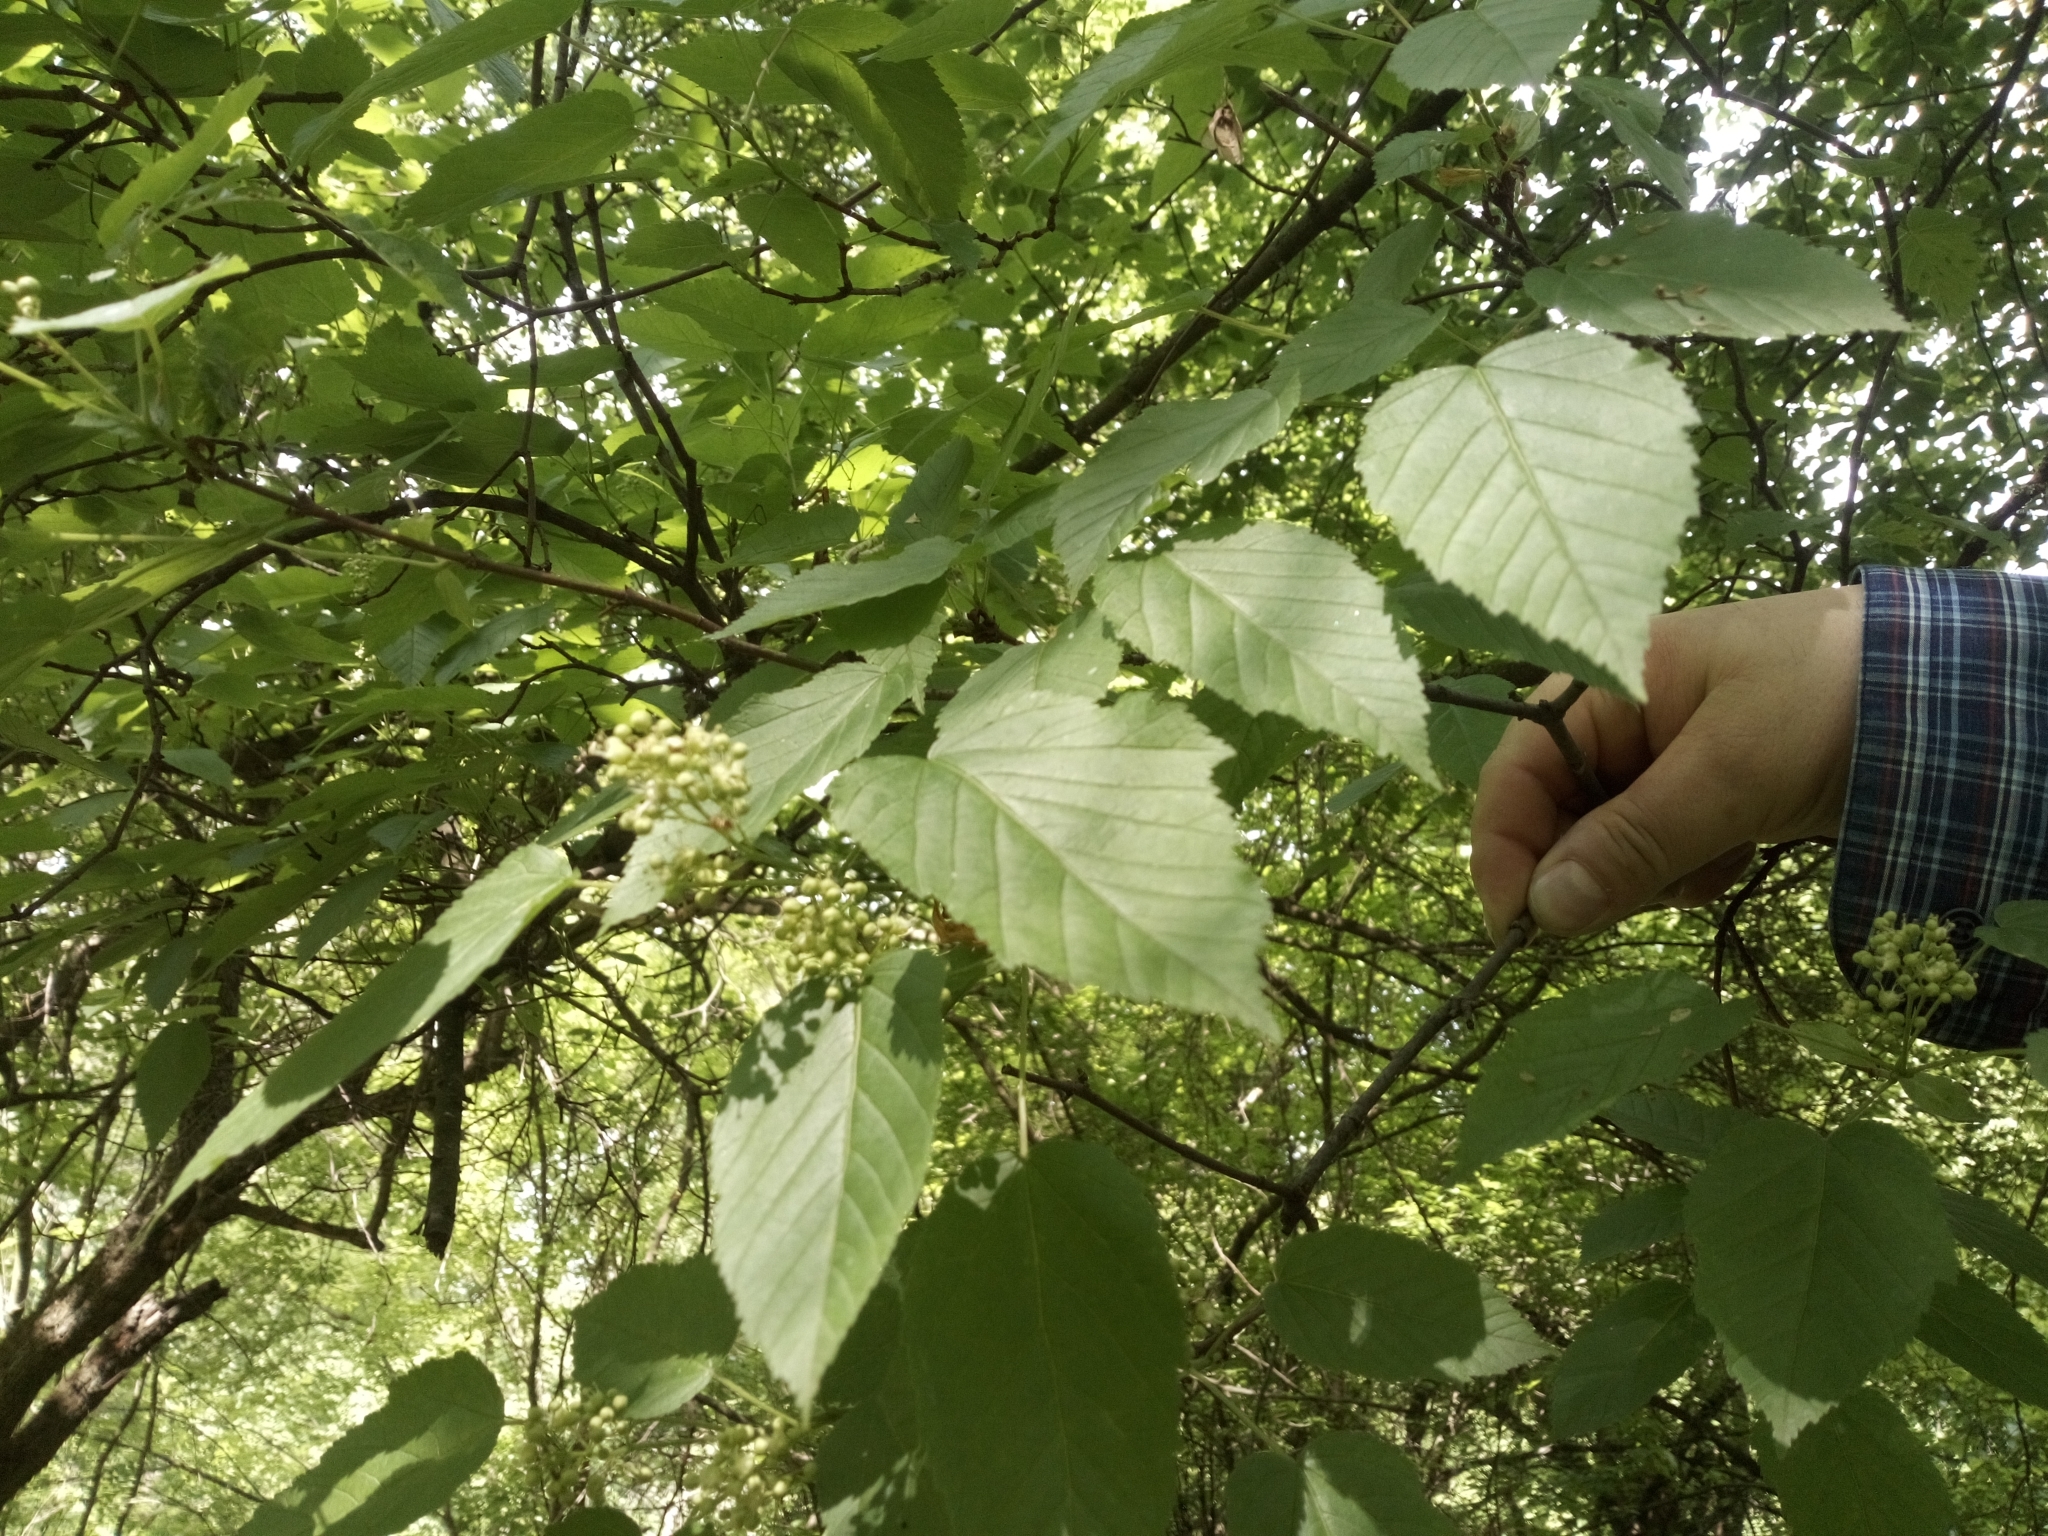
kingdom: Plantae
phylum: Tracheophyta
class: Magnoliopsida
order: Sapindales
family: Sapindaceae
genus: Acer
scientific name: Acer tataricum
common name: Tartar maple
